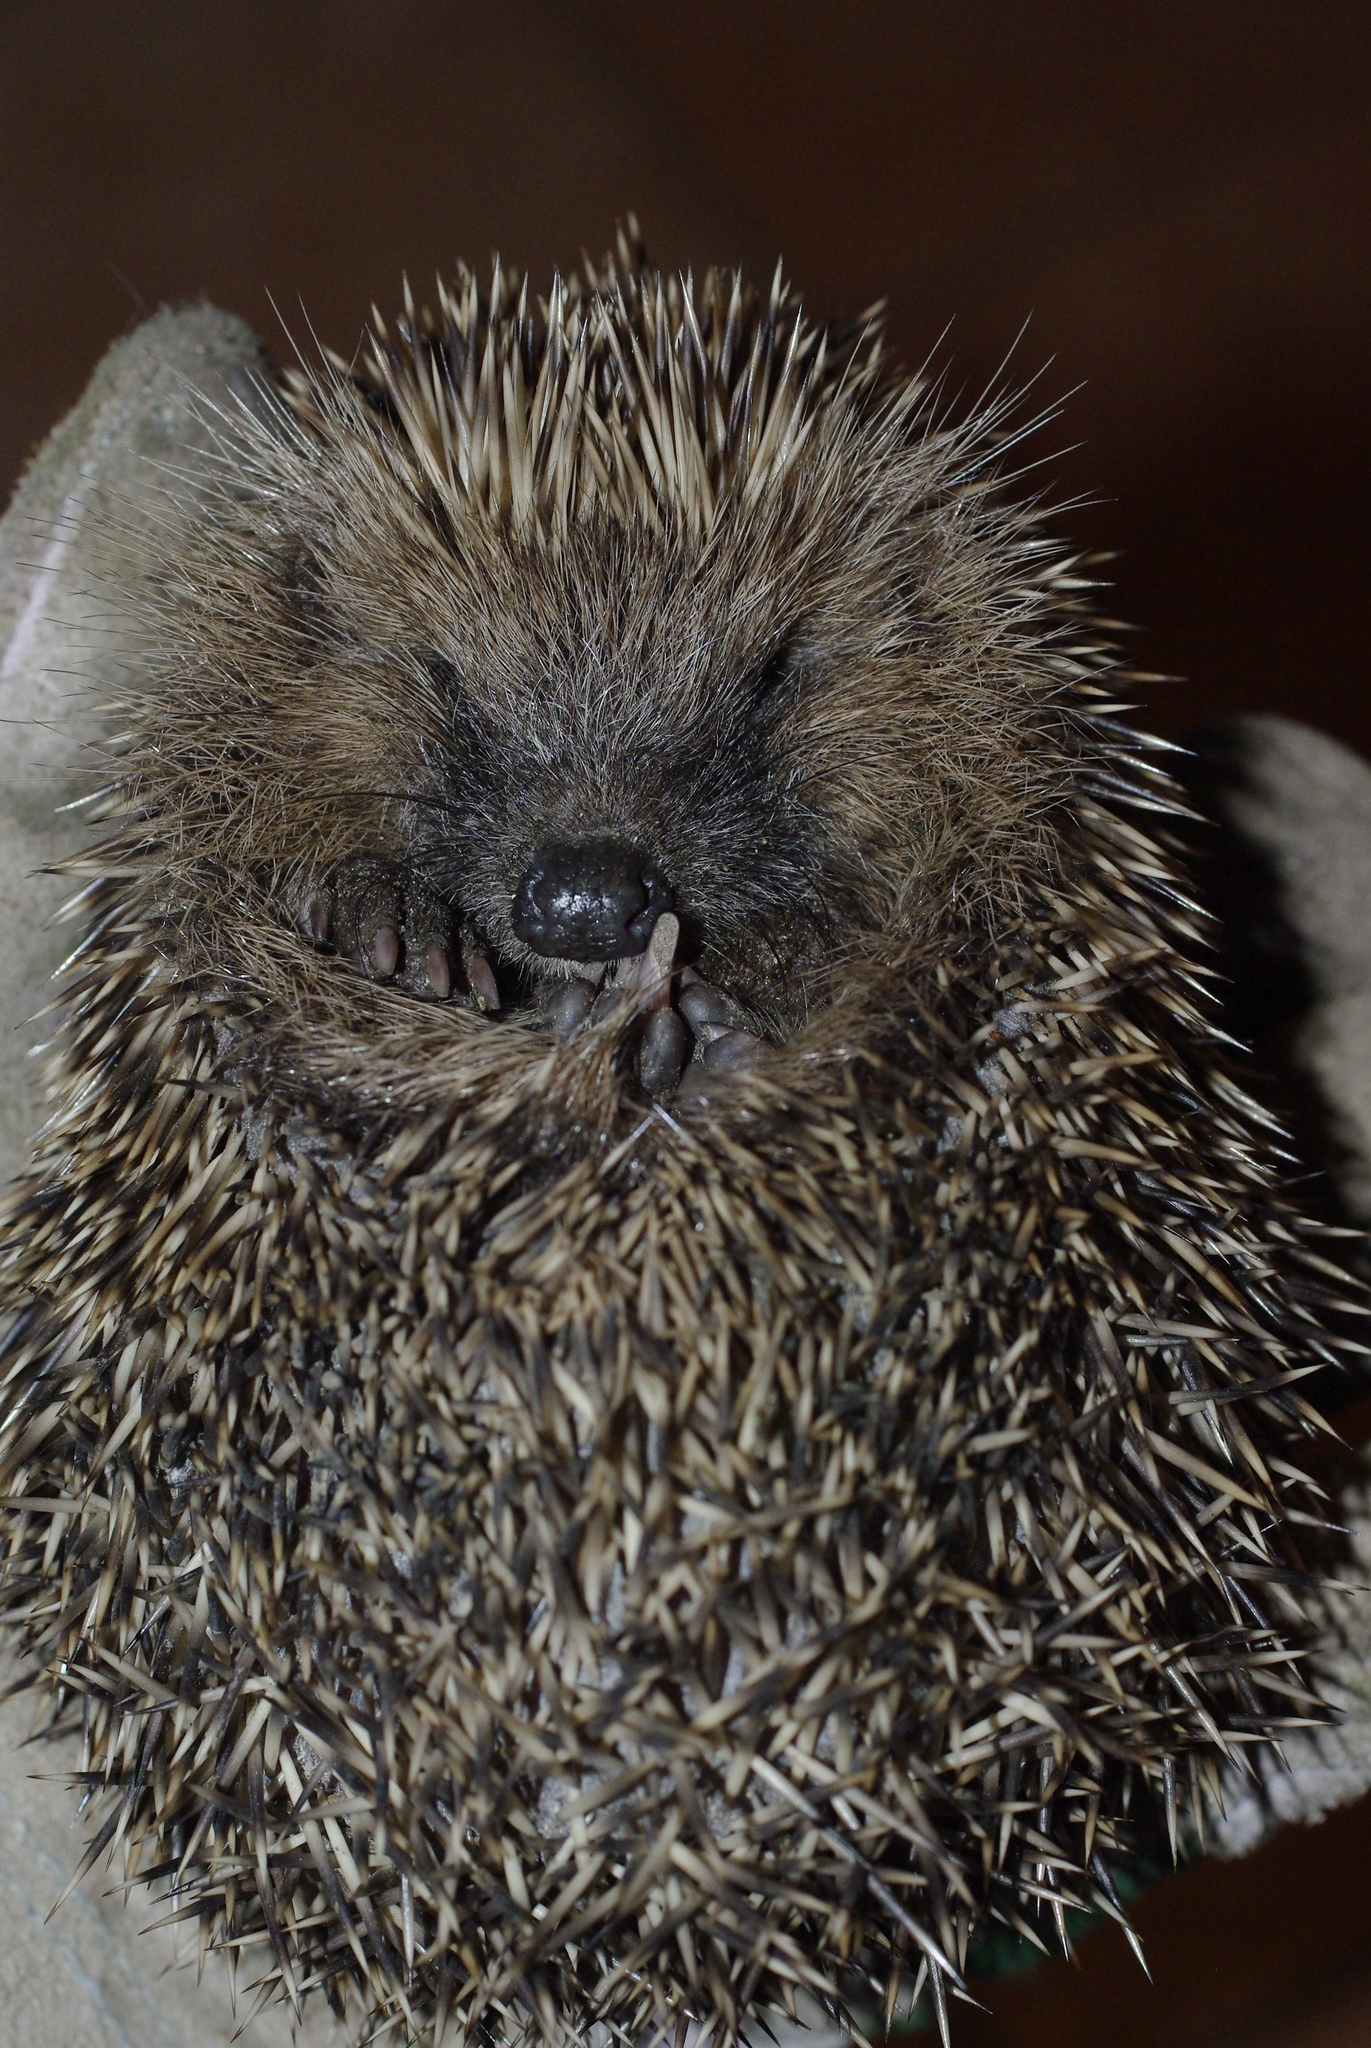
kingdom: Animalia
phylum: Chordata
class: Mammalia
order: Erinaceomorpha
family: Erinaceidae
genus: Erinaceus
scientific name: Erinaceus europaeus
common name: West european hedgehog
